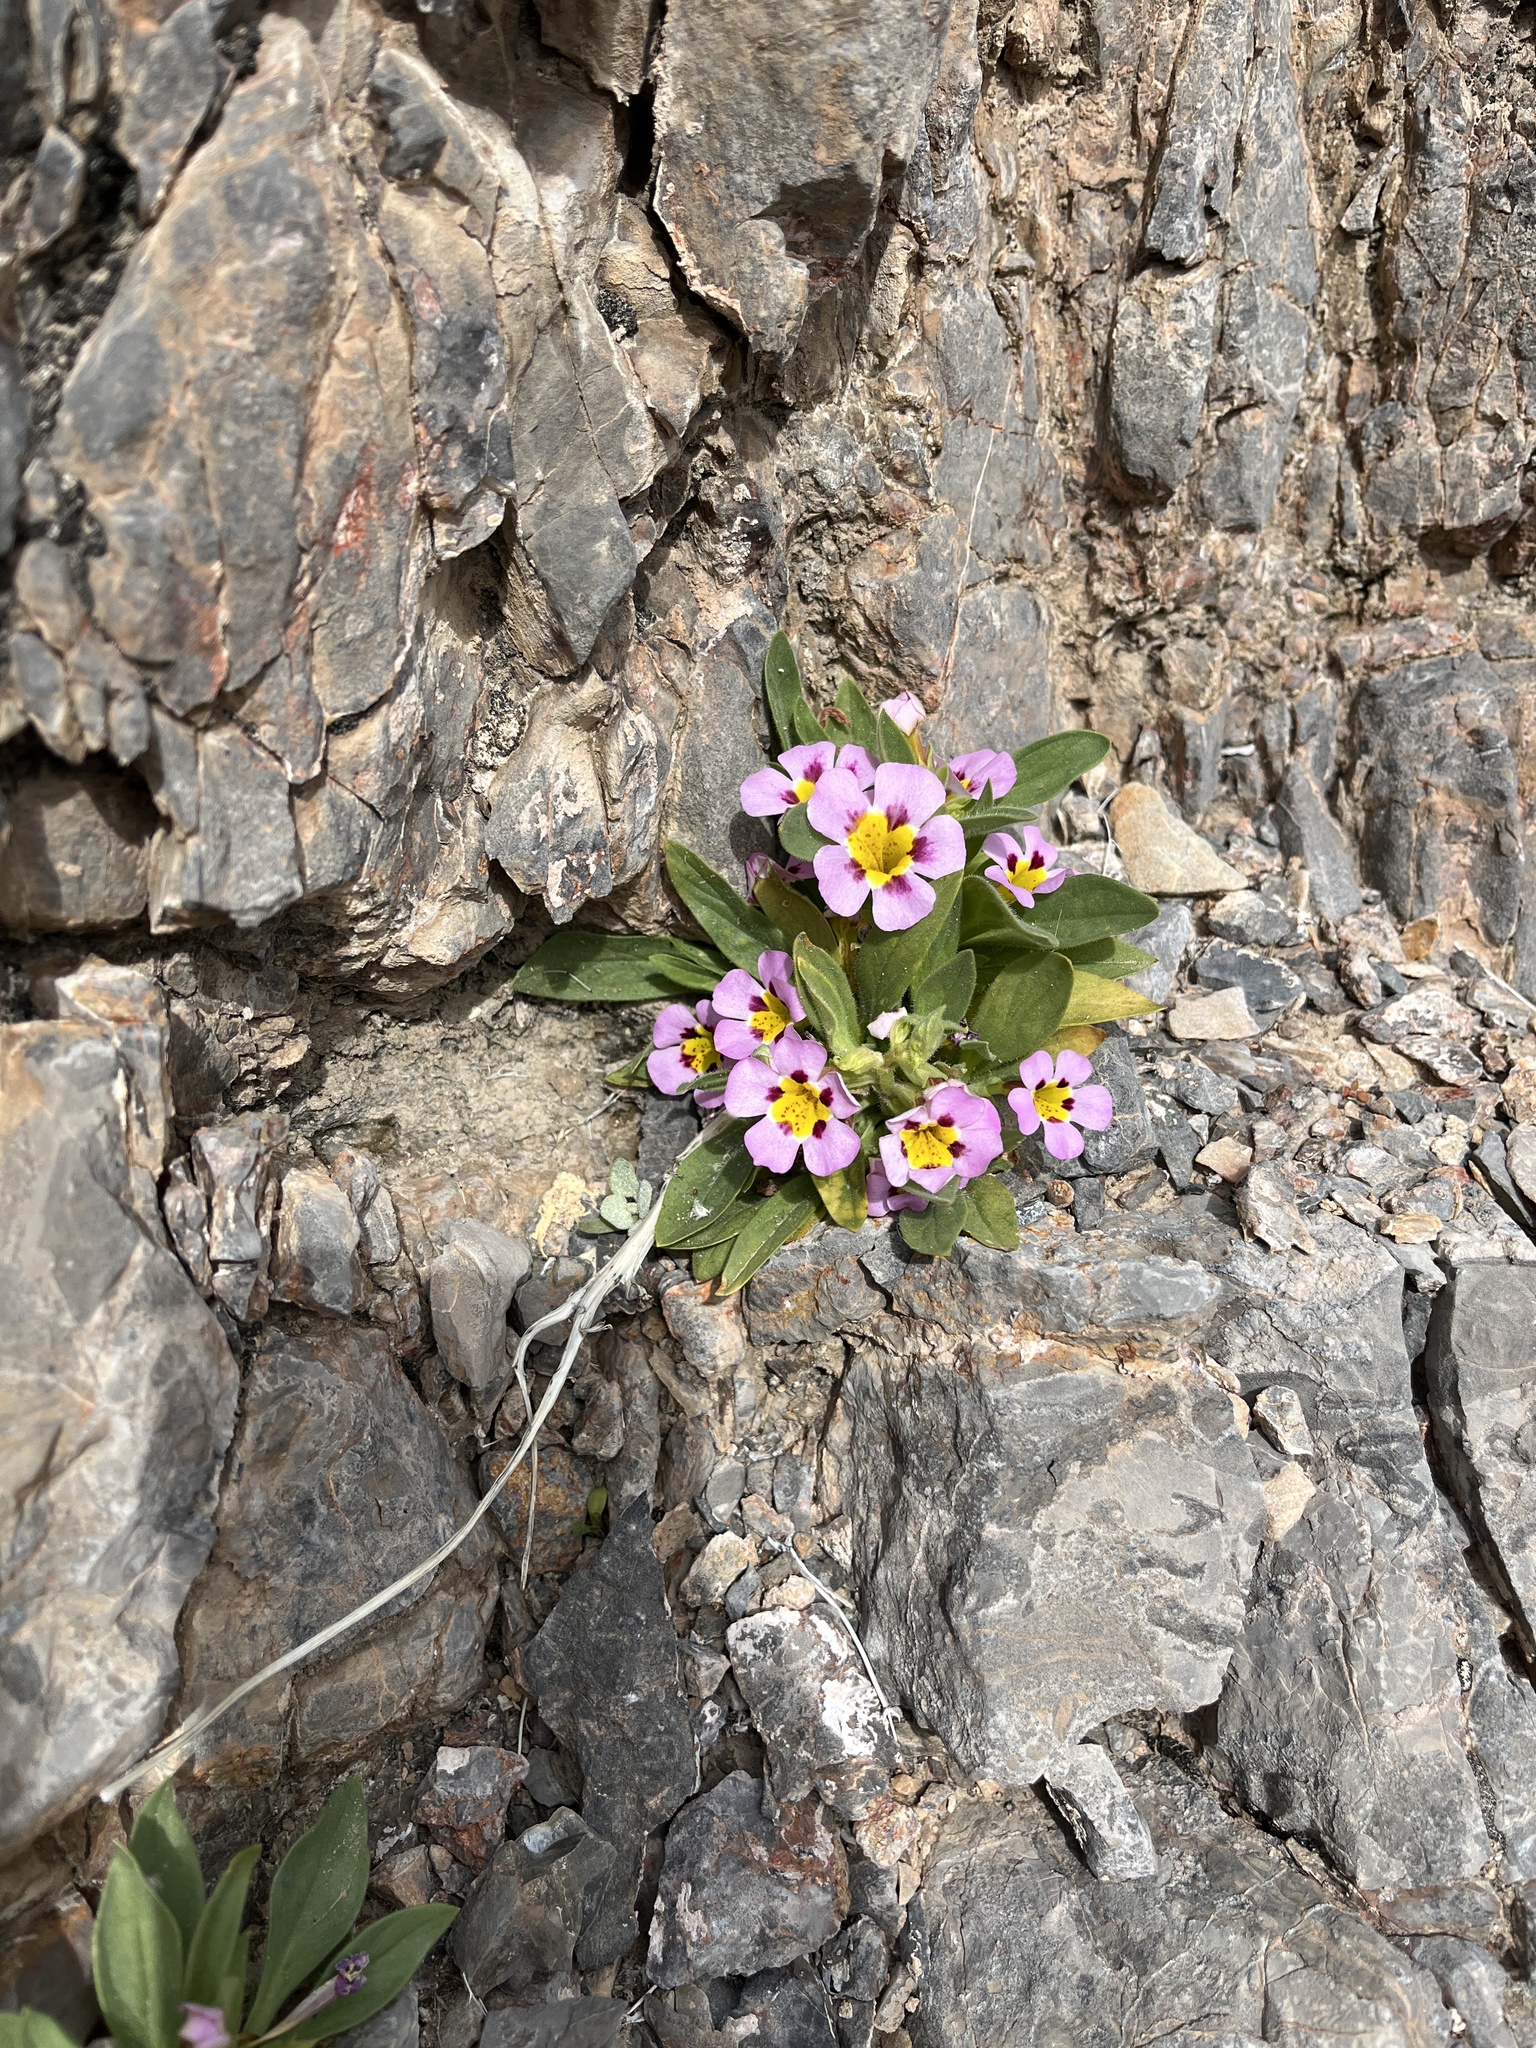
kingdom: Plantae
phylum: Tracheophyta
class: Magnoliopsida
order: Lamiales
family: Phrymaceae
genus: Diplacus
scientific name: Diplacus rupicola
